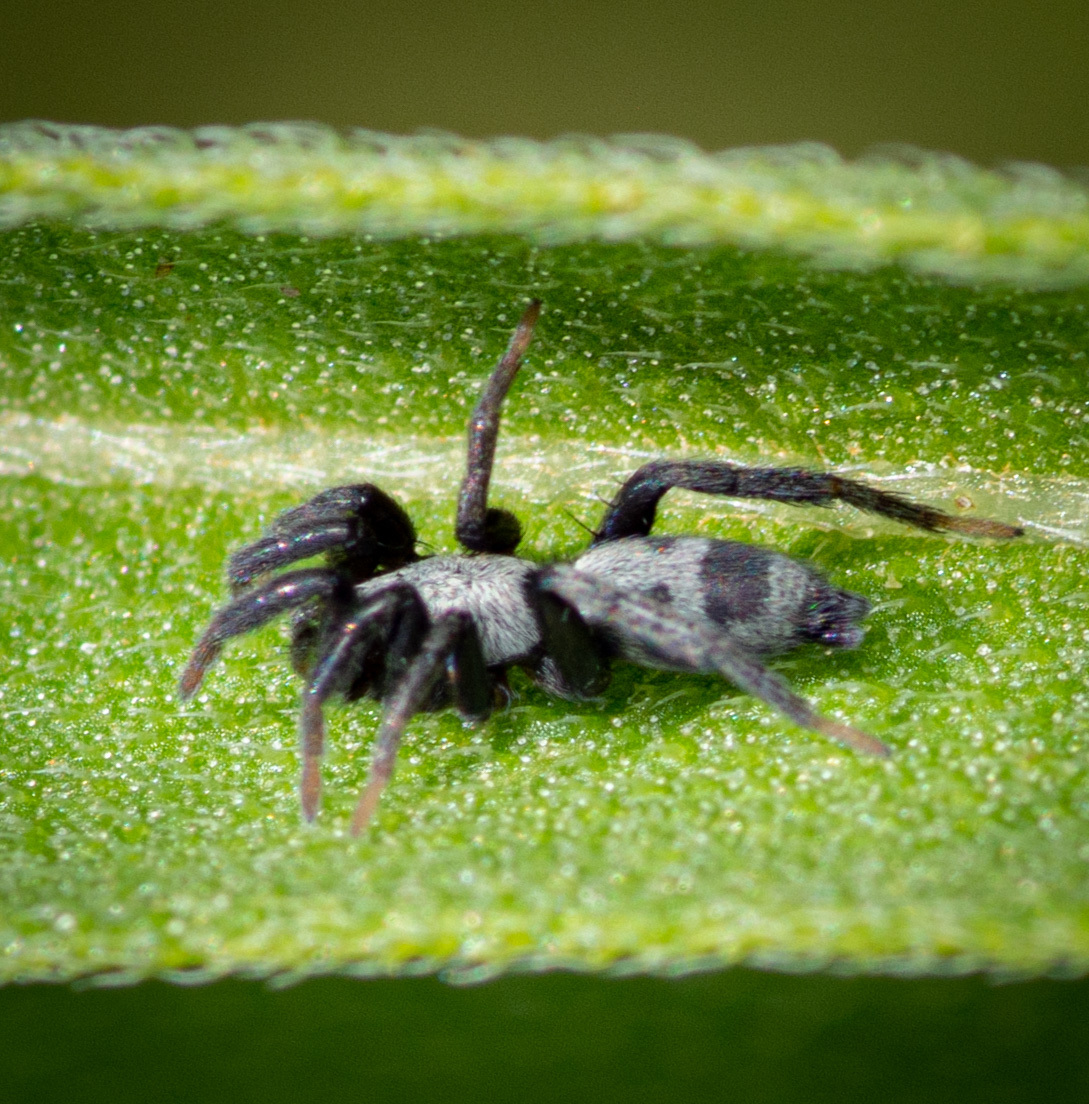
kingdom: Animalia
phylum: Arthropoda
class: Arachnida
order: Araneae
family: Gnaphosidae
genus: Sergiolus
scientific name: Sergiolus stella
